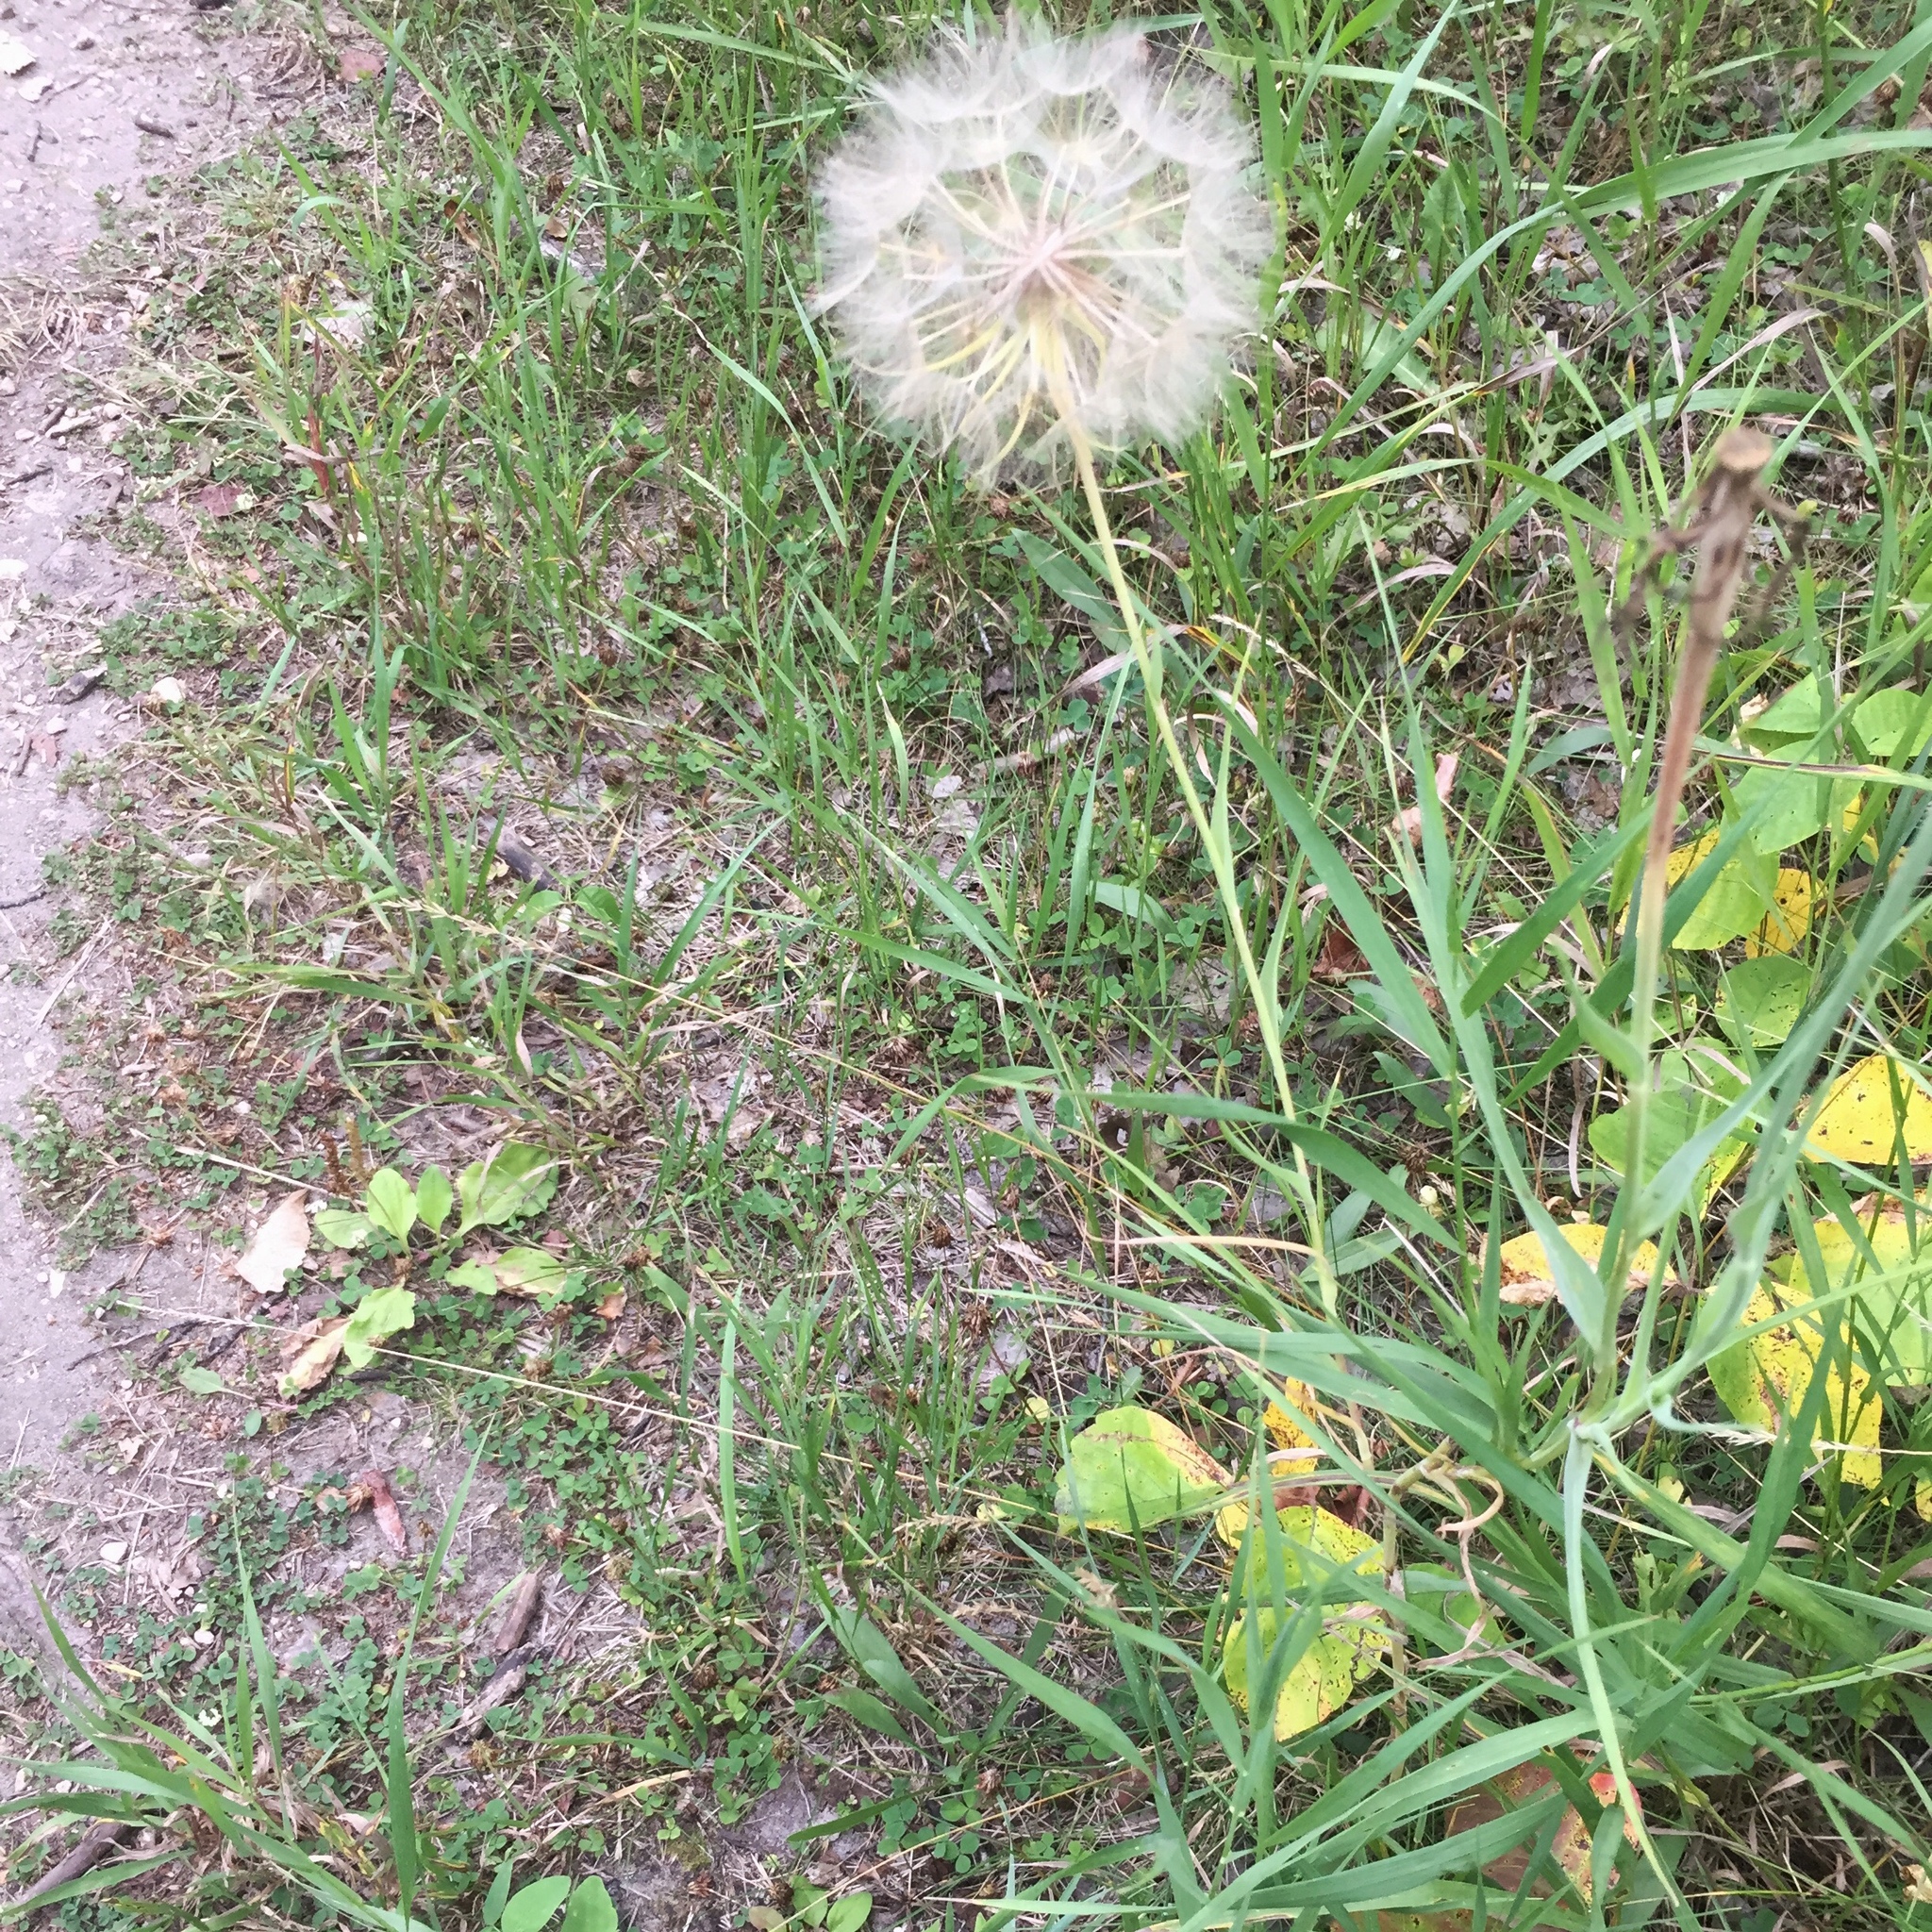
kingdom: Plantae
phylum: Tracheophyta
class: Magnoliopsida
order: Asterales
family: Asteraceae
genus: Tragopogon
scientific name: Tragopogon dubius
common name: Yellow salsify
